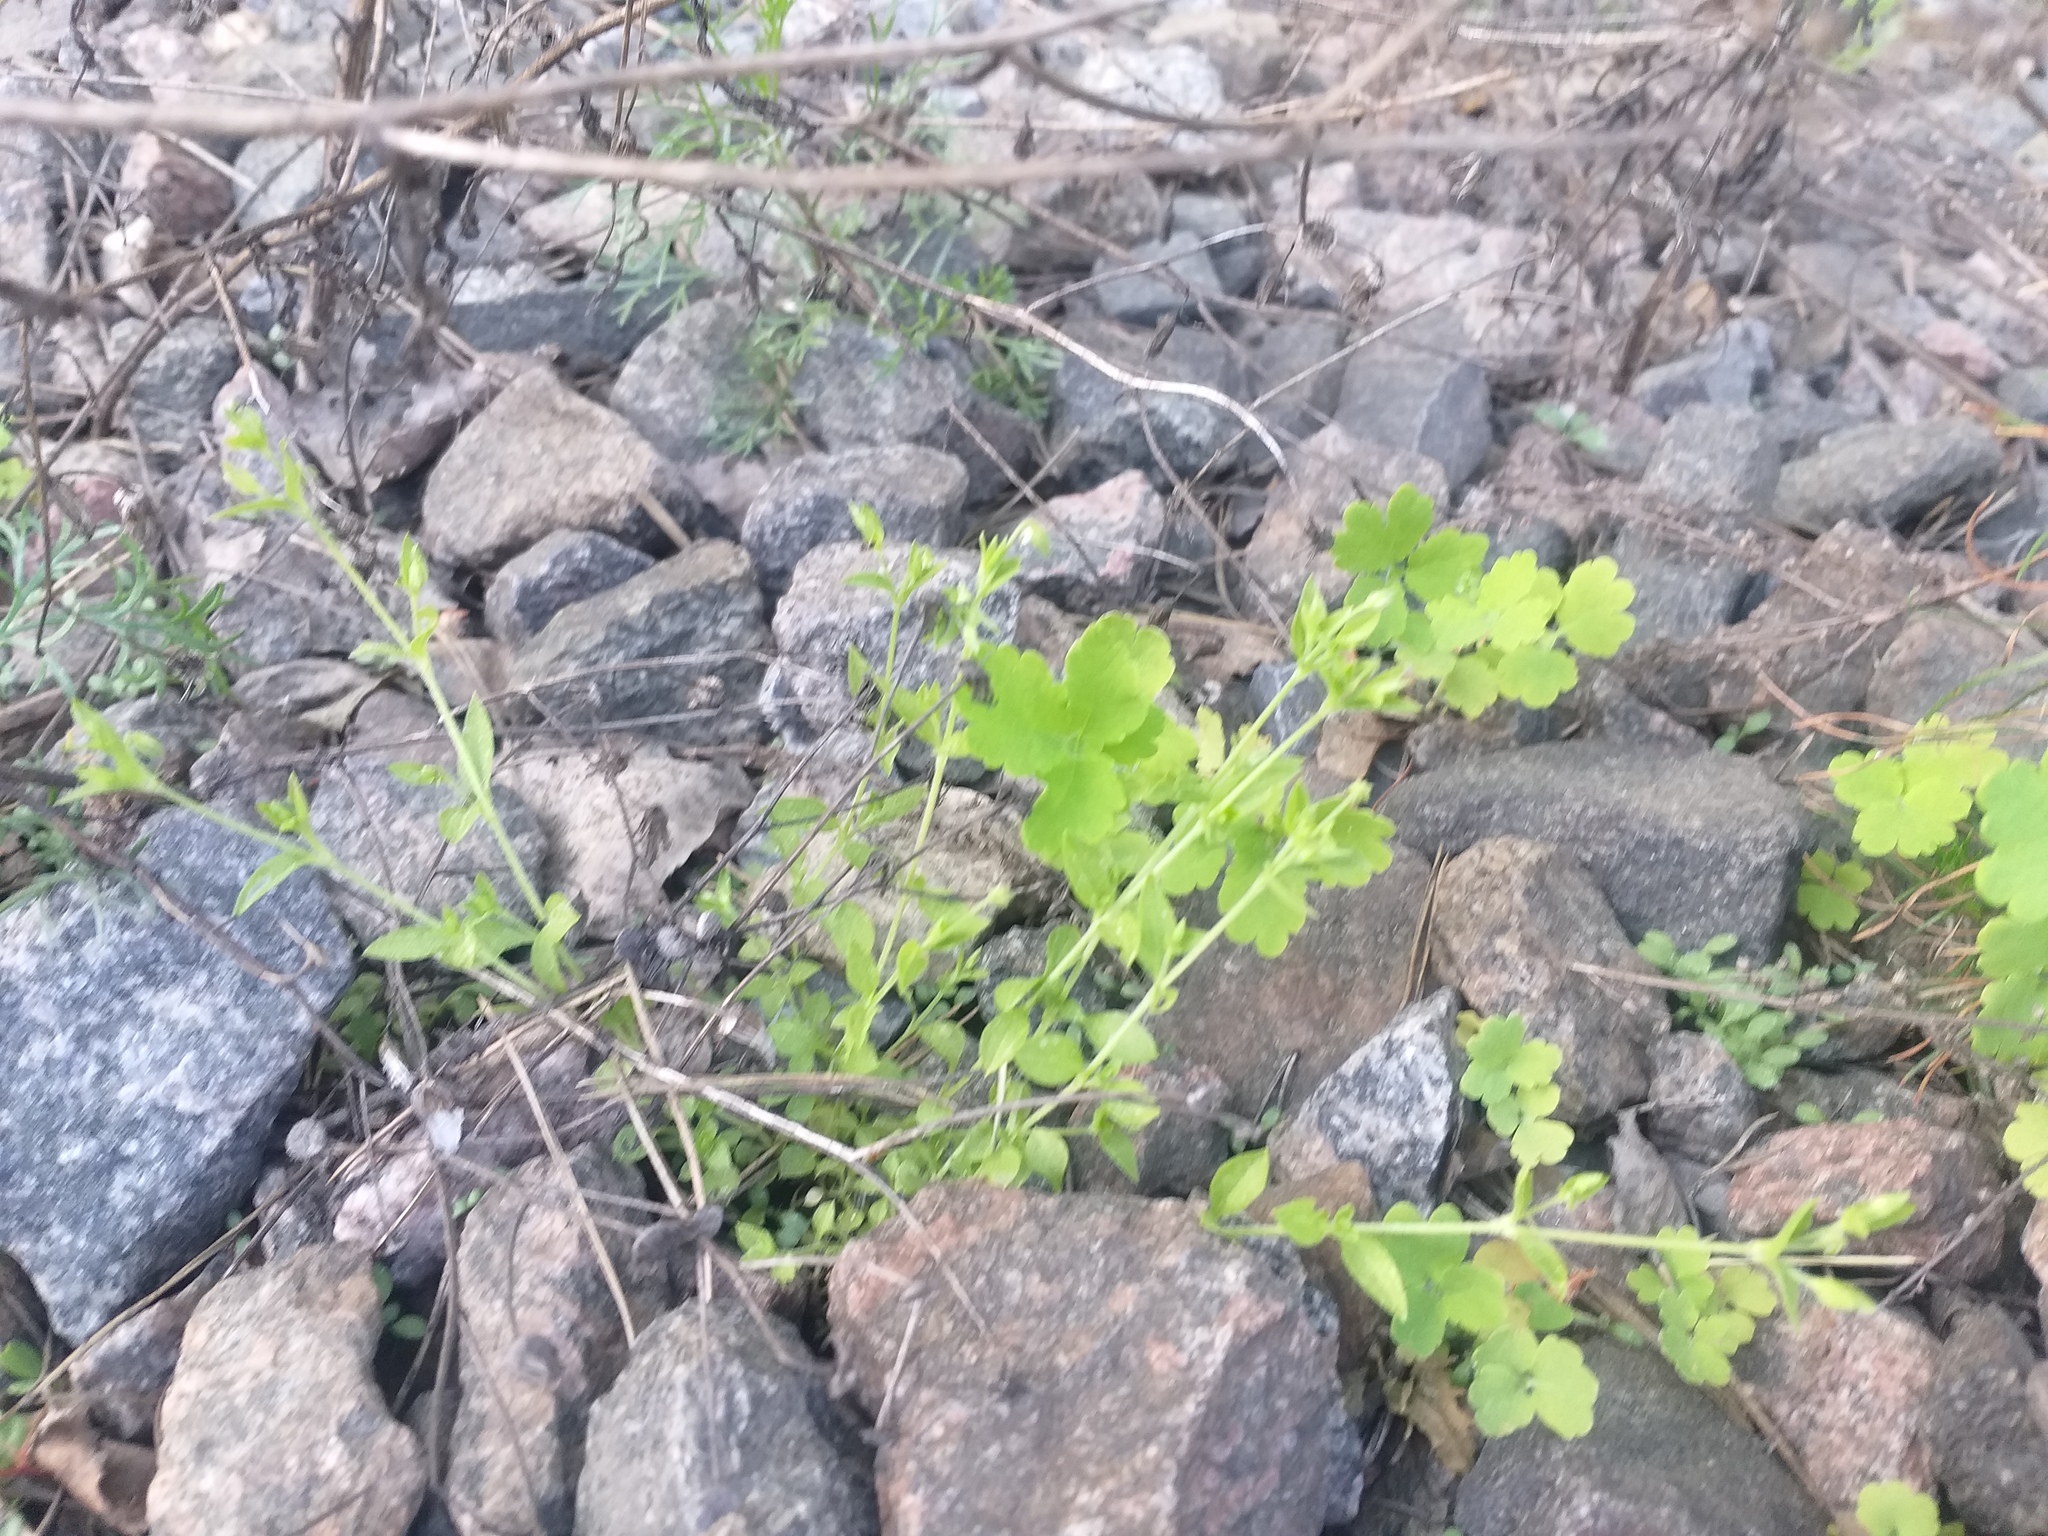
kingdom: Plantae
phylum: Tracheophyta
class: Magnoliopsida
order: Caryophyllales
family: Caryophyllaceae
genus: Moehringia
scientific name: Moehringia trinervia
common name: Three-nerved sandwort
